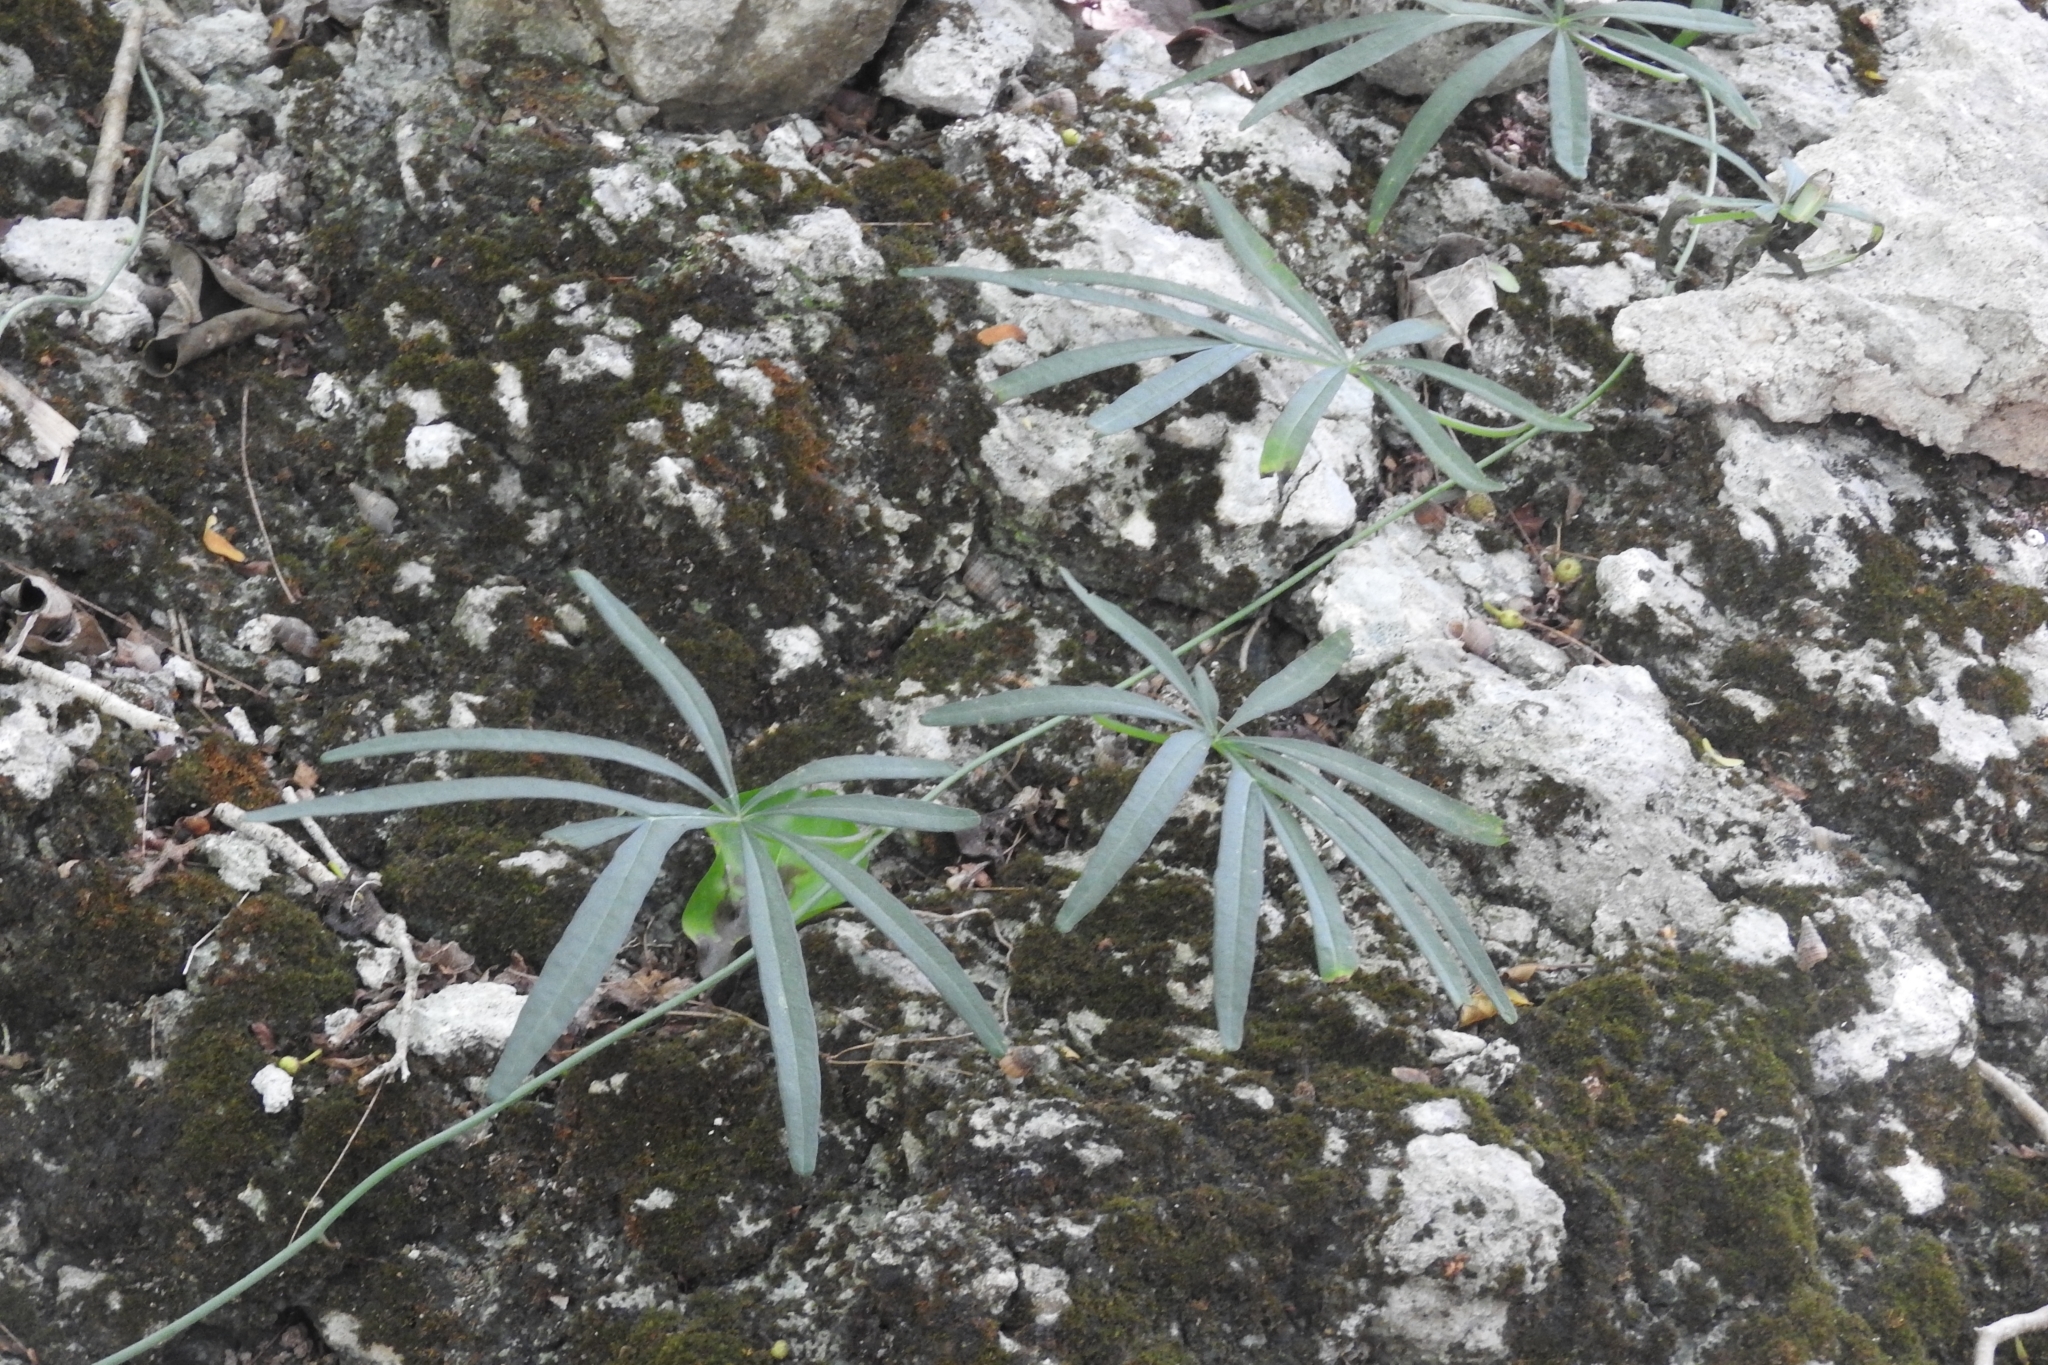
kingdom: Plantae
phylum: Tracheophyta
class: Magnoliopsida
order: Solanales
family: Convolvulaceae
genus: Ipomoea
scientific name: Ipomoea heterodoxa
